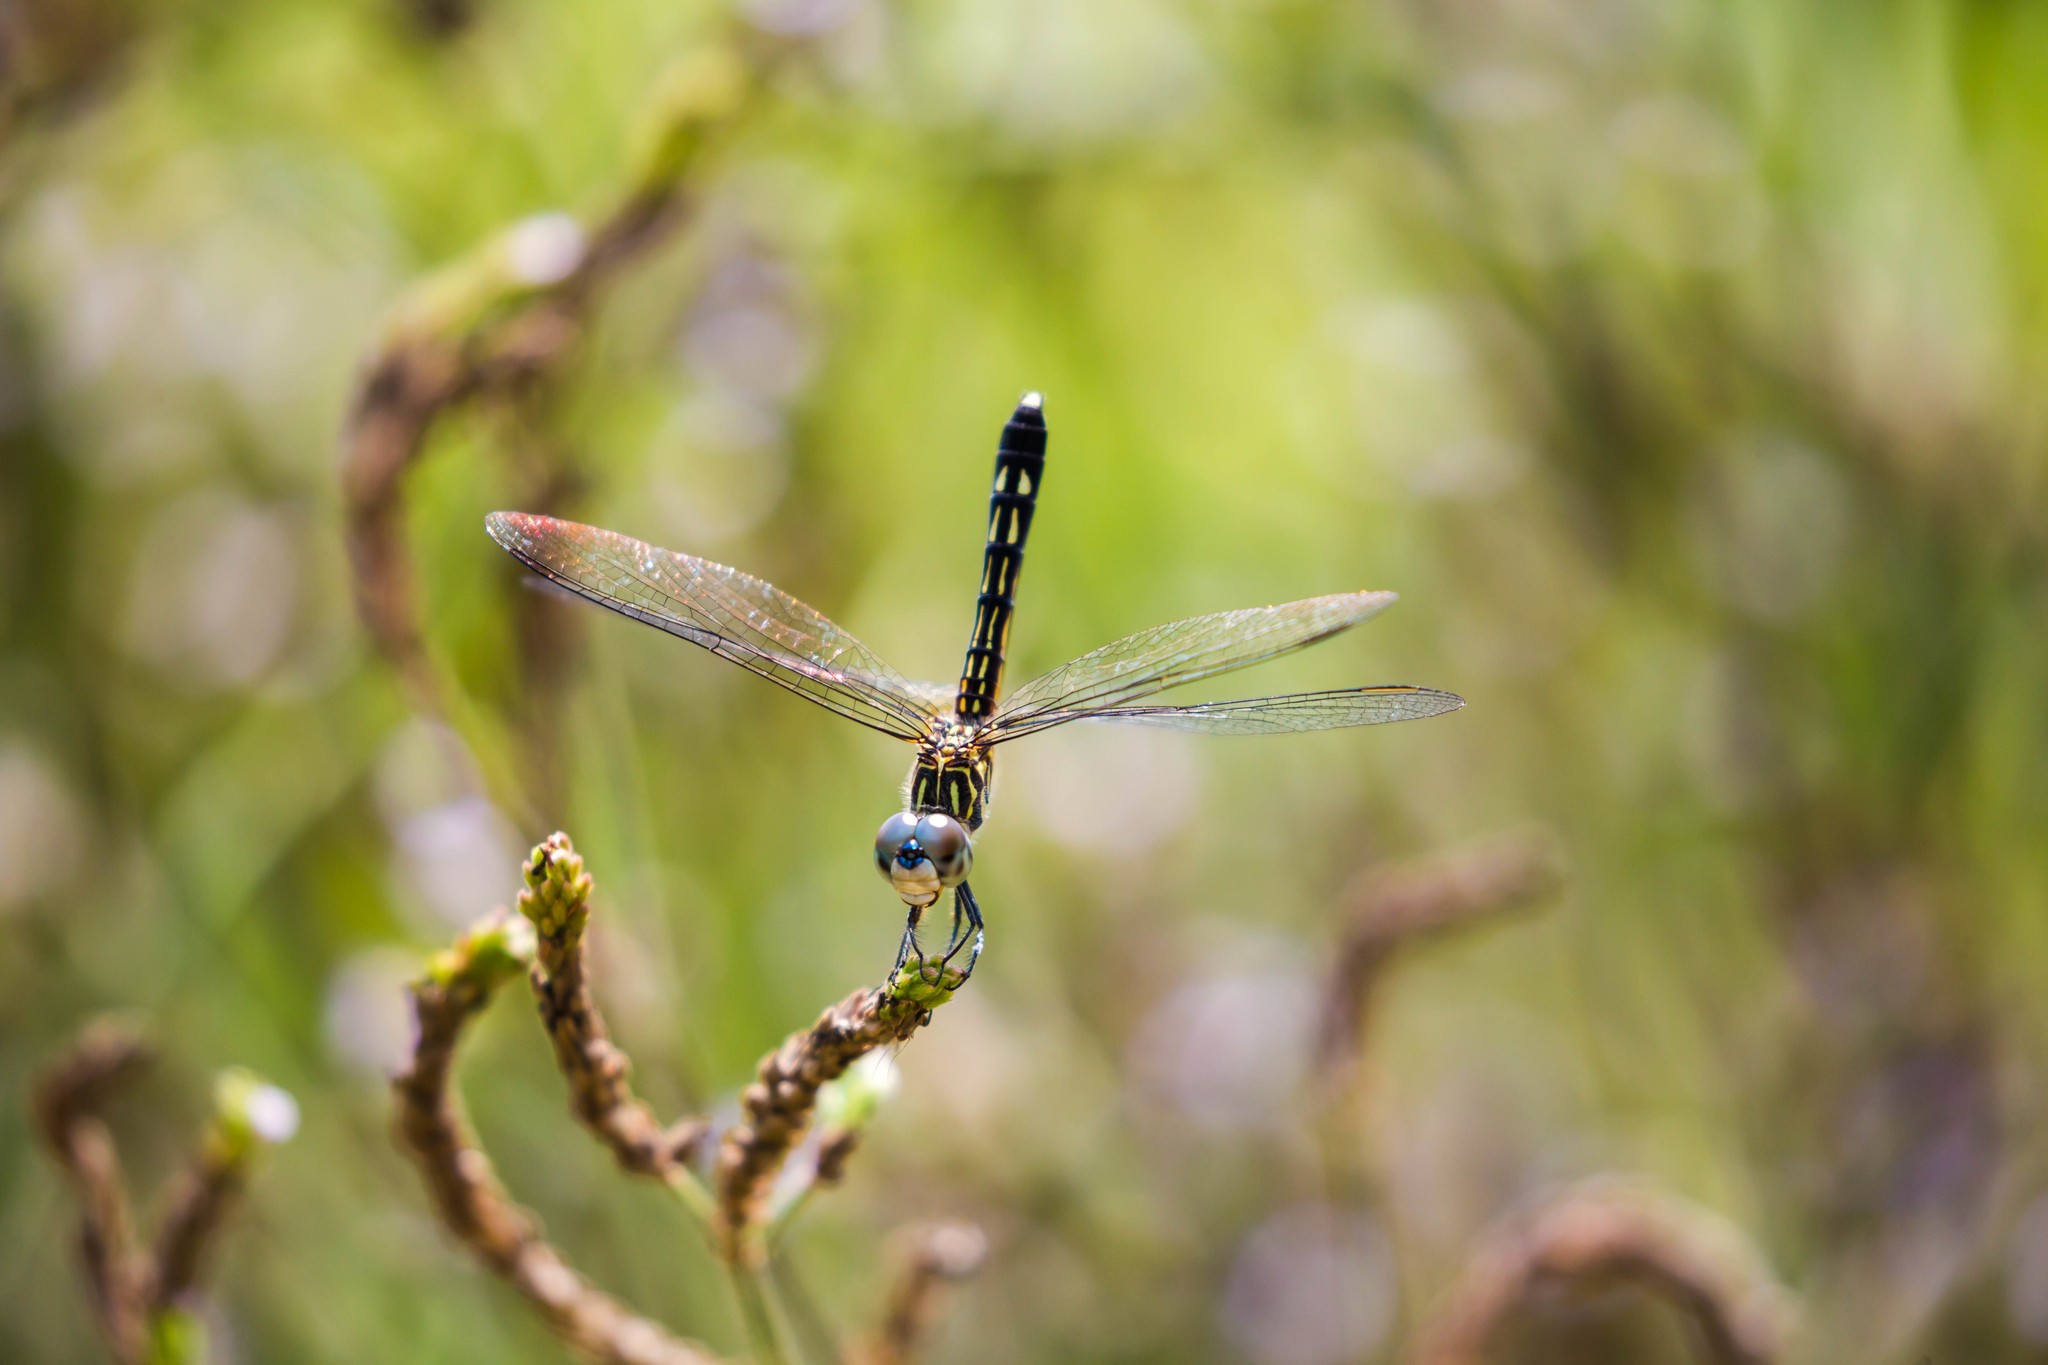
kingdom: Animalia
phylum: Arthropoda
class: Insecta
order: Odonata
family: Libellulidae
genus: Pachydiplax
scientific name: Pachydiplax longipennis
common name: Blue dasher
